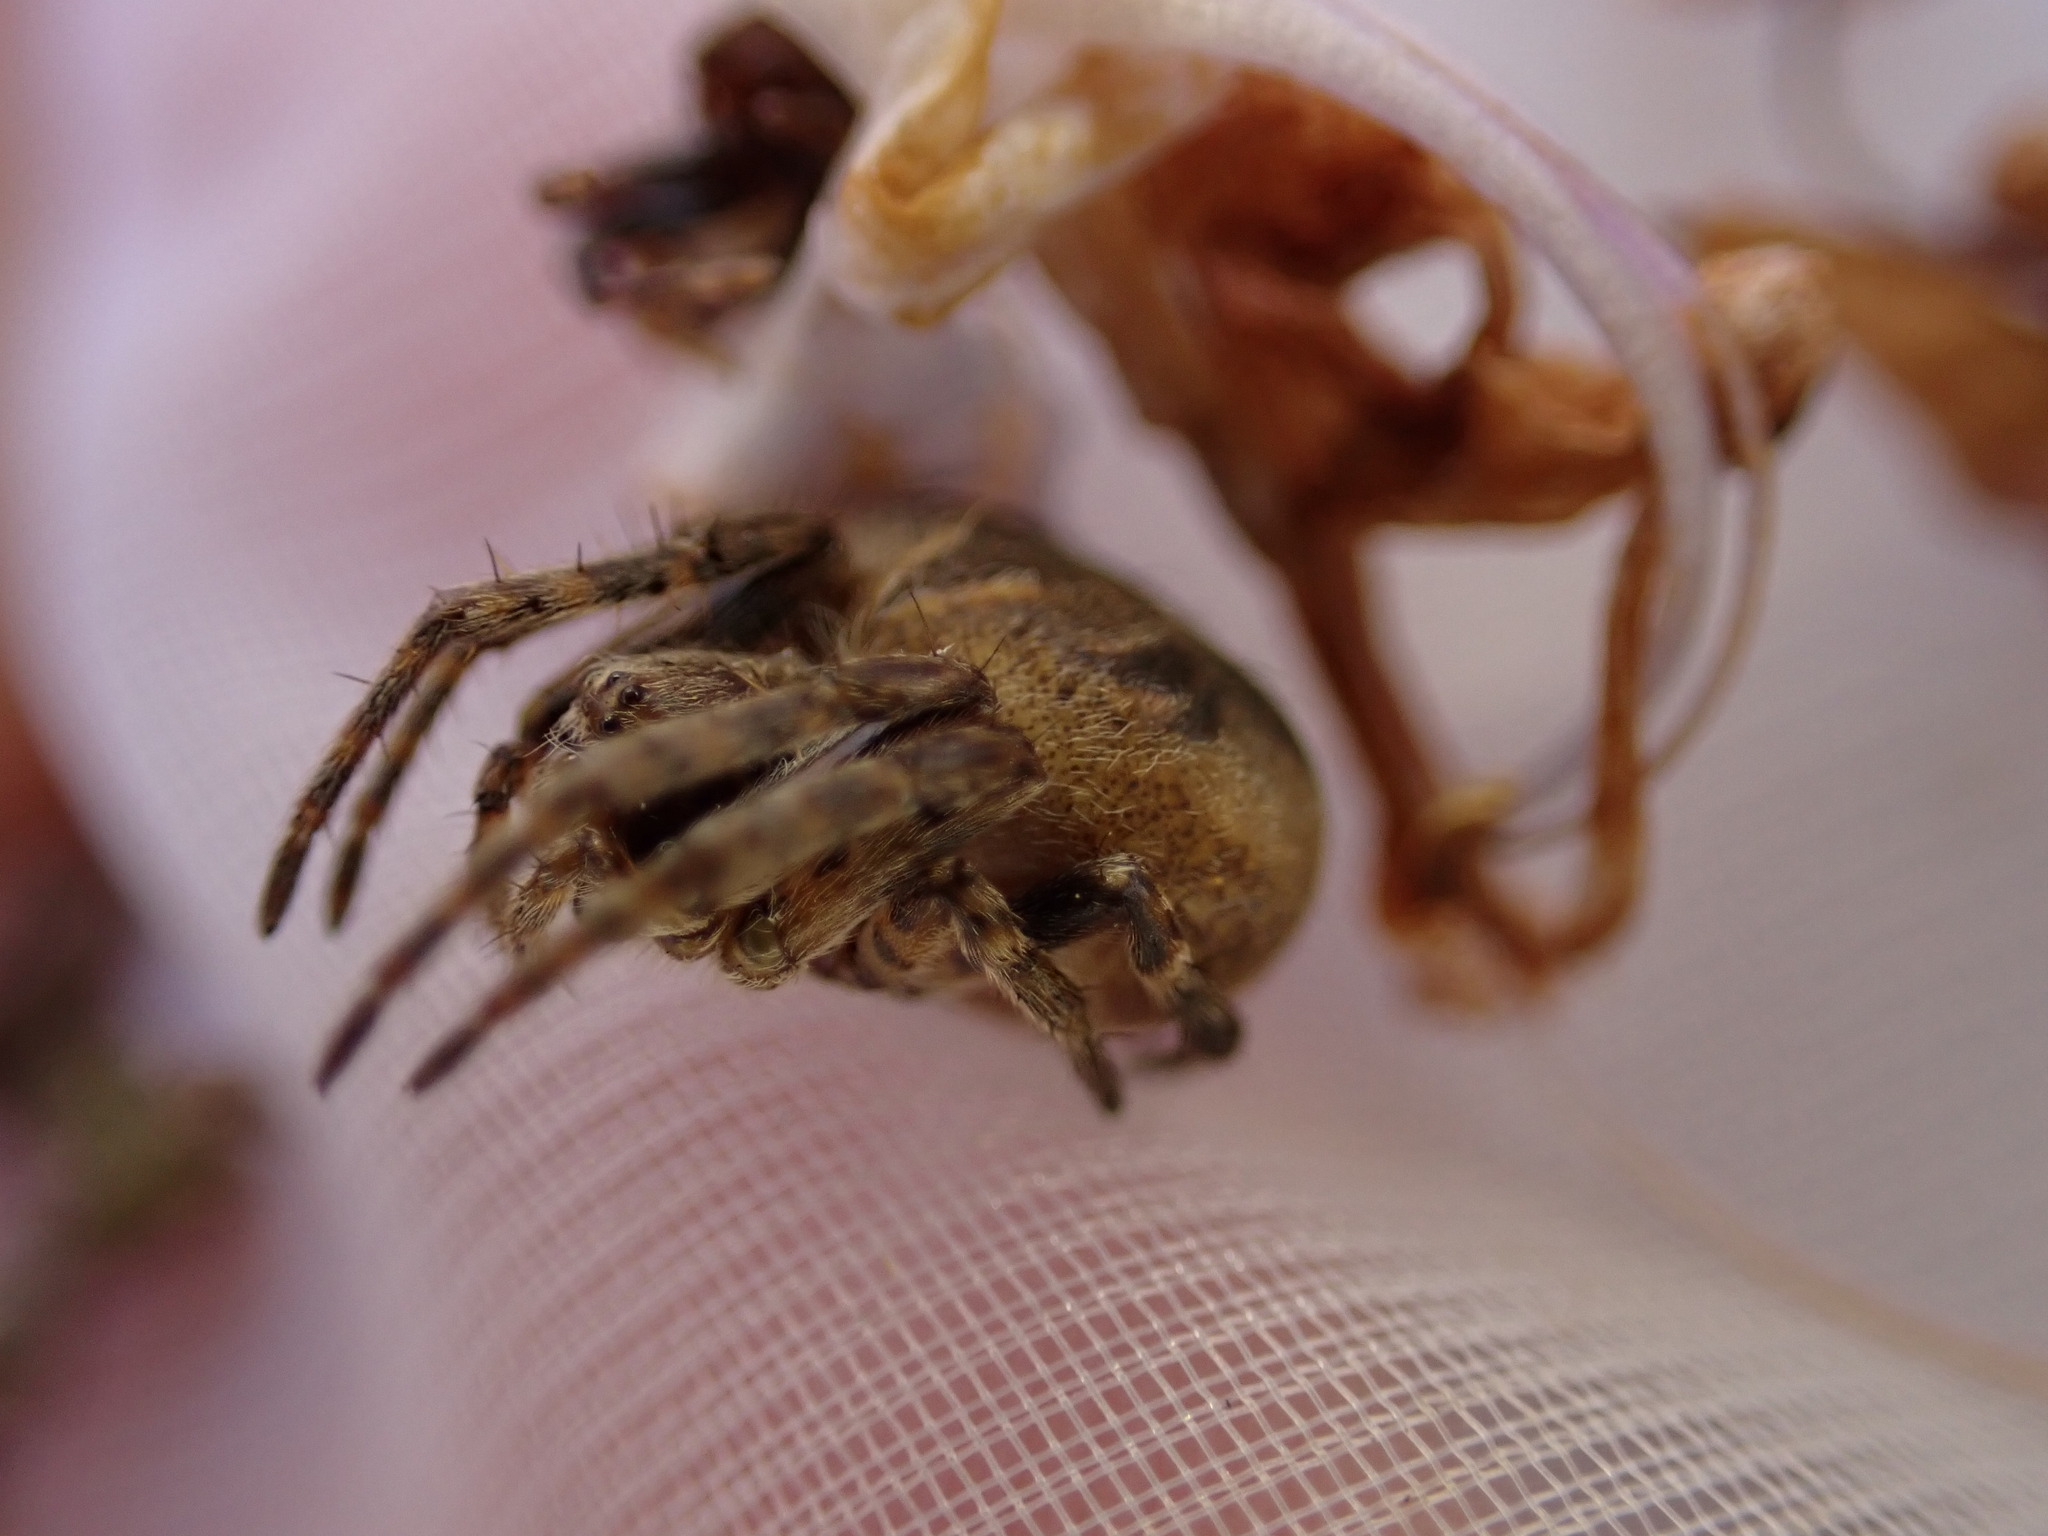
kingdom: Animalia
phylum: Arthropoda
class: Arachnida
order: Araneae
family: Araneidae
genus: Agalenatea
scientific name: Agalenatea redii
